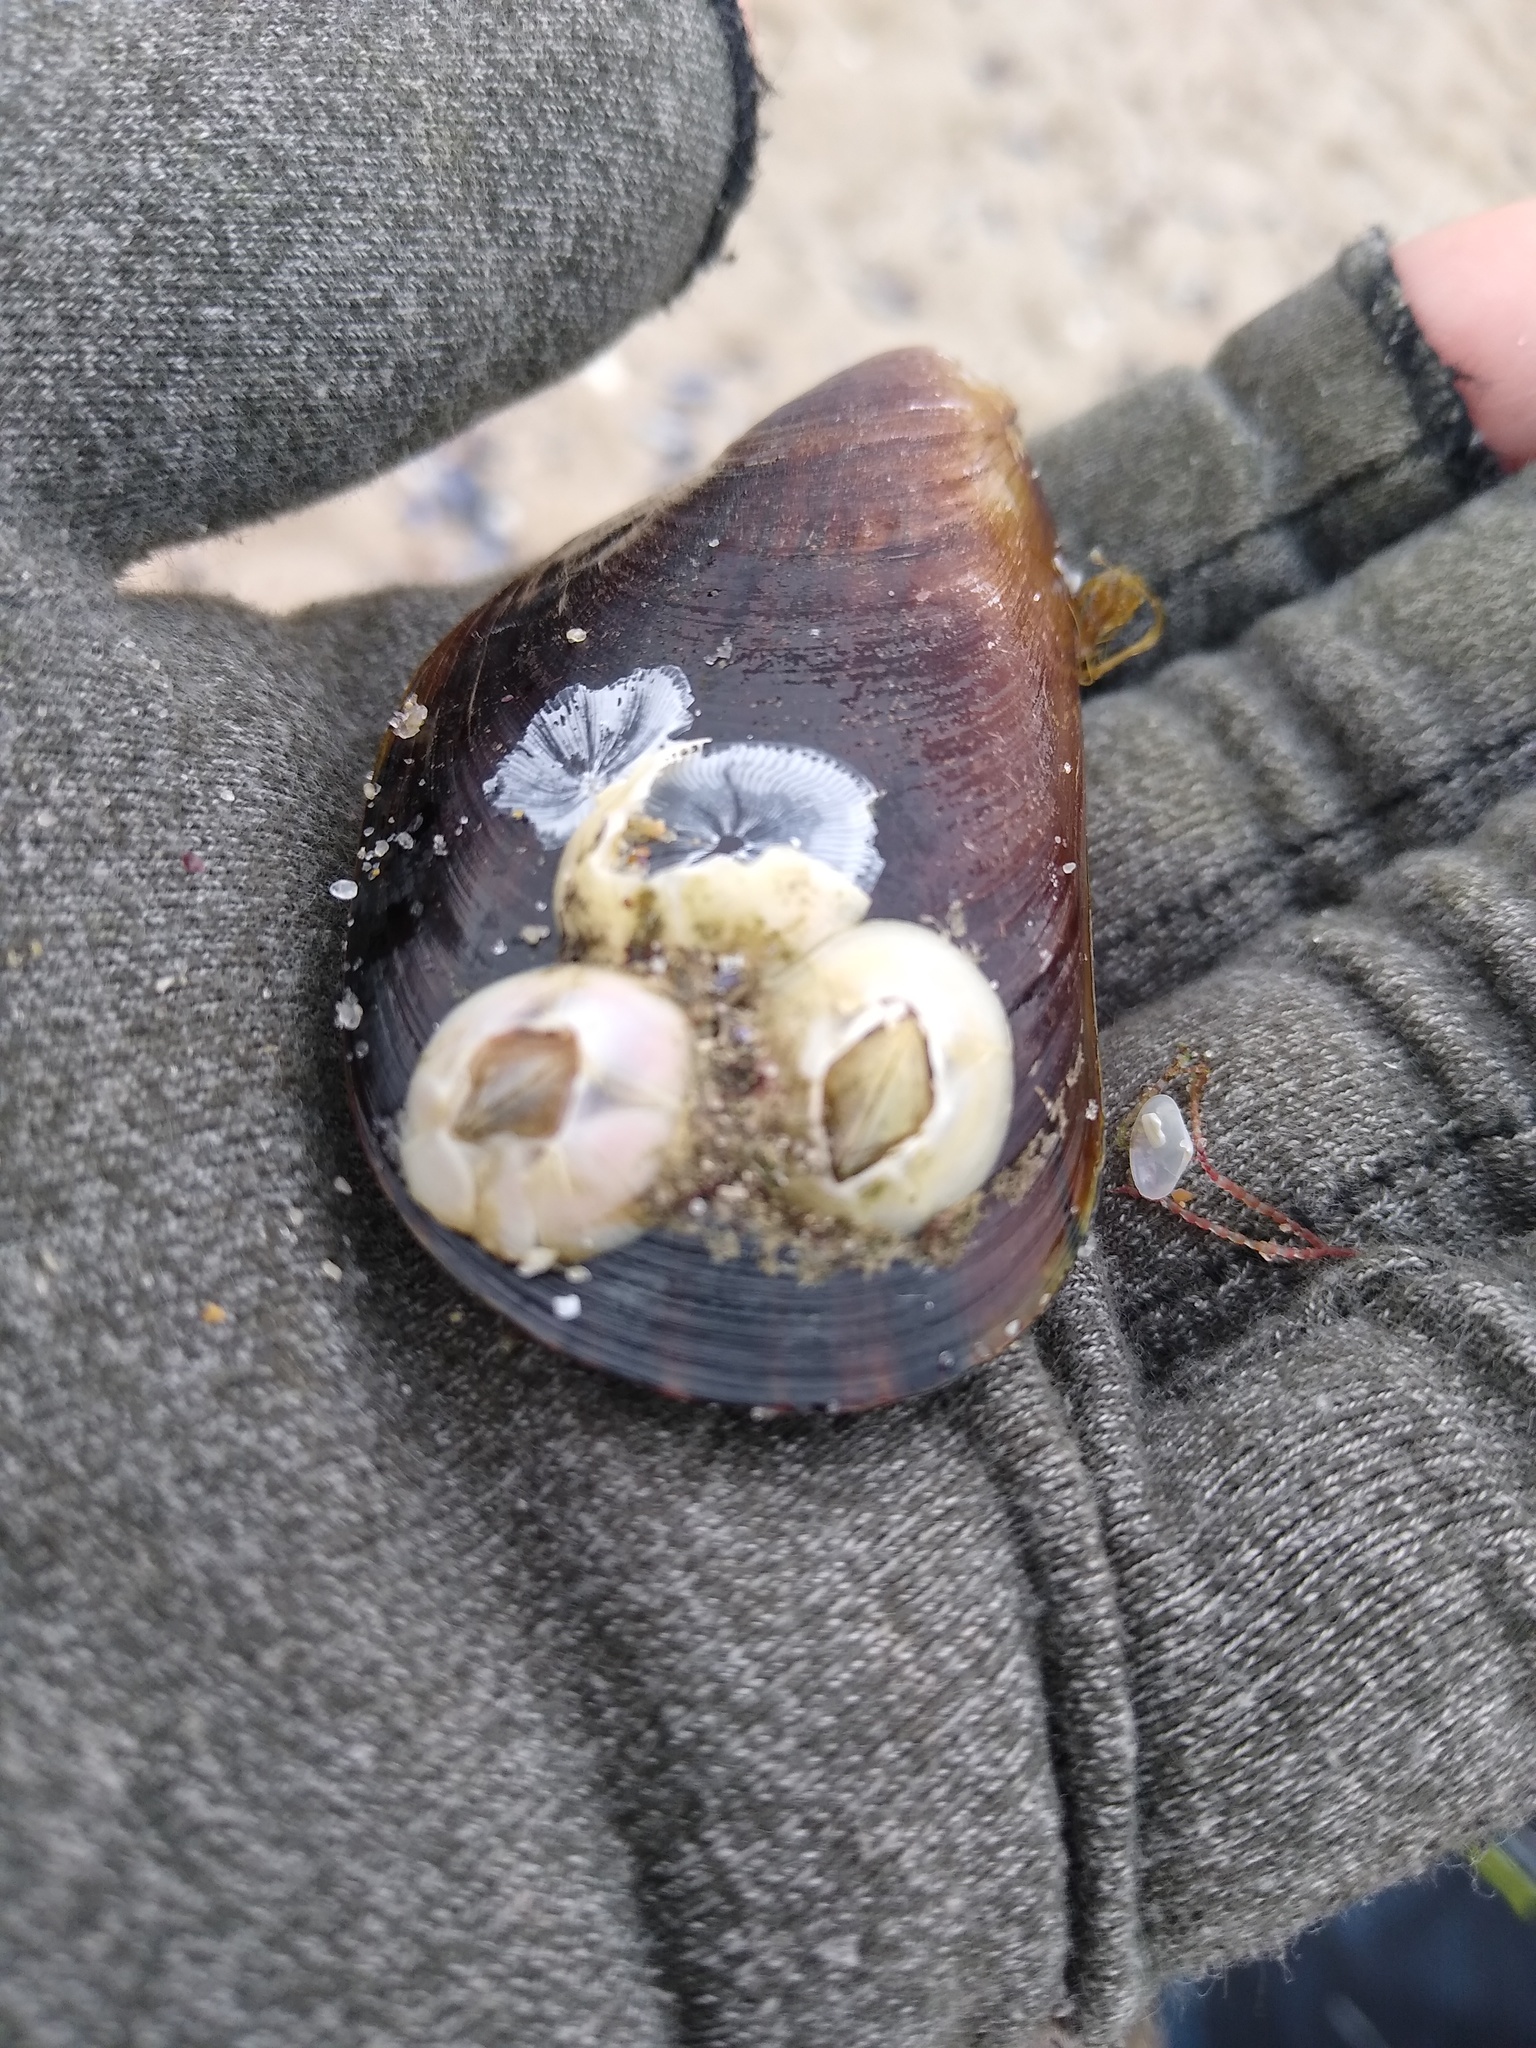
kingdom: Animalia
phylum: Arthropoda
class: Maxillopoda
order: Sessilia
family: Balanidae
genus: Amphibalanus
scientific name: Amphibalanus improvisus
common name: Bay barnacle
